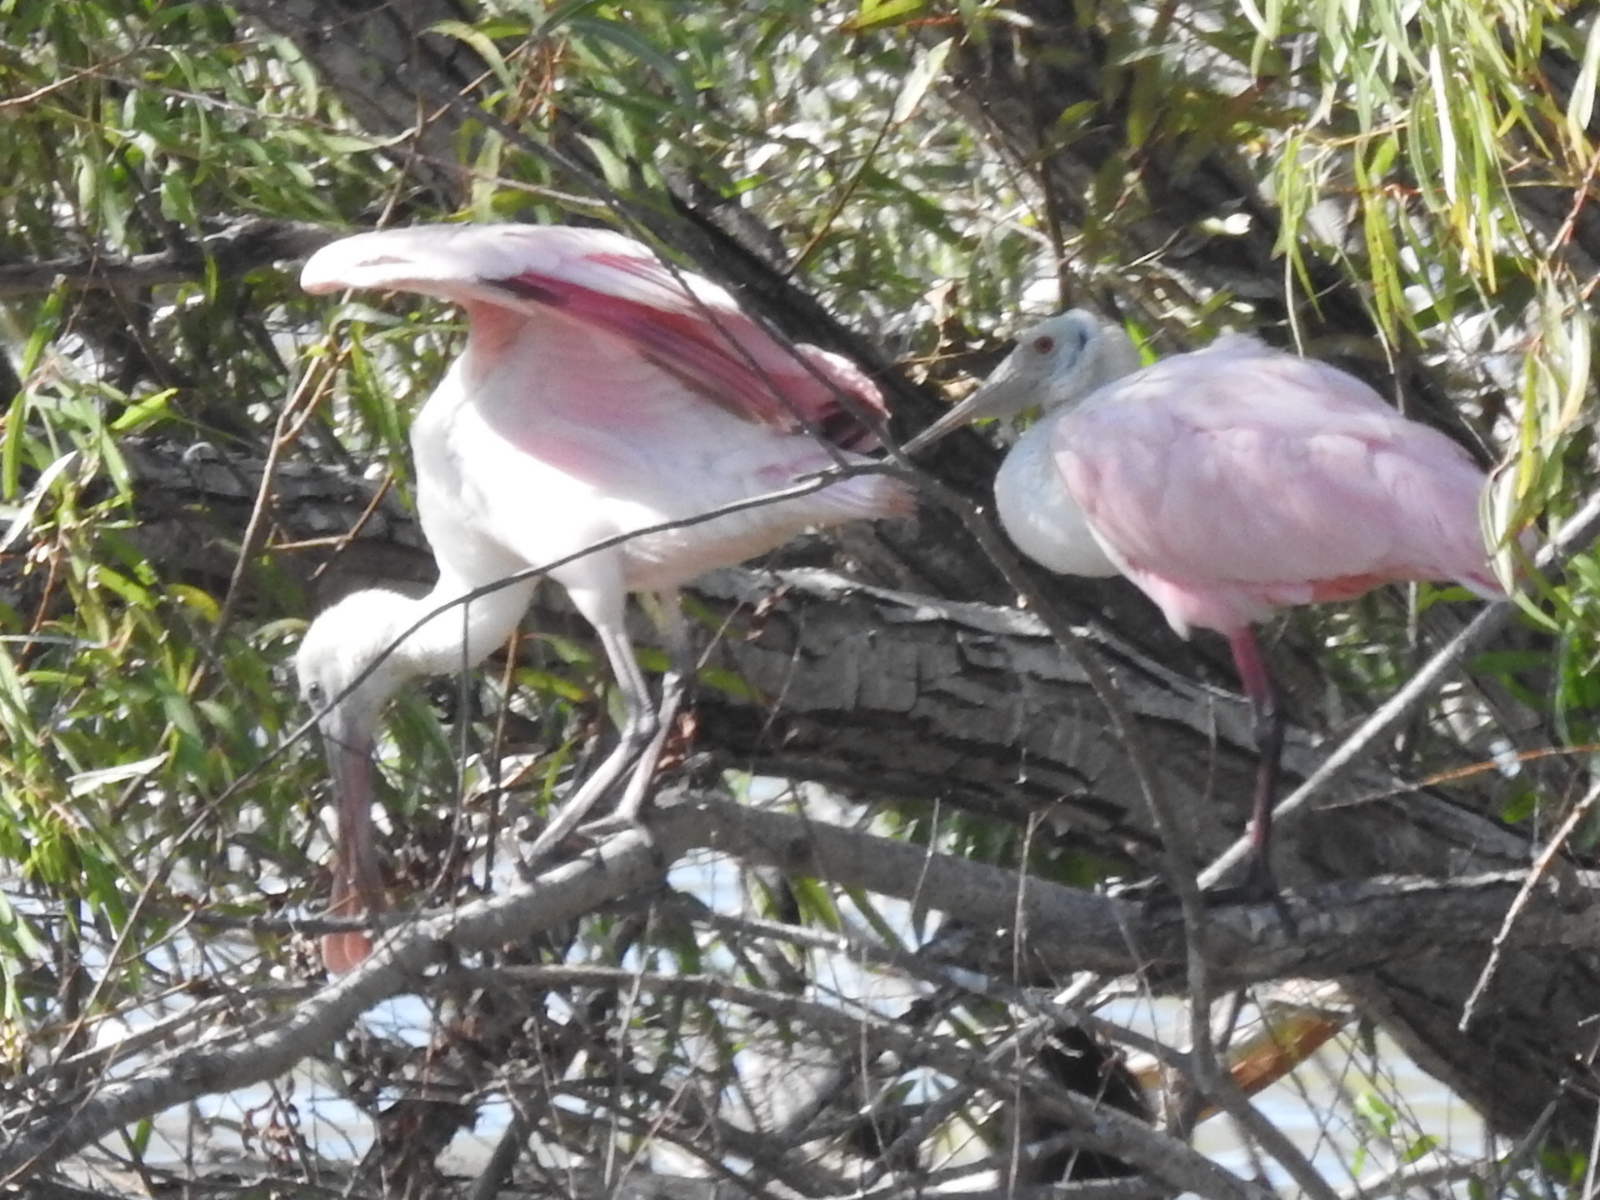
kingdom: Animalia
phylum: Chordata
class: Aves
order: Pelecaniformes
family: Threskiornithidae
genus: Platalea
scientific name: Platalea ajaja
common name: Roseate spoonbill
